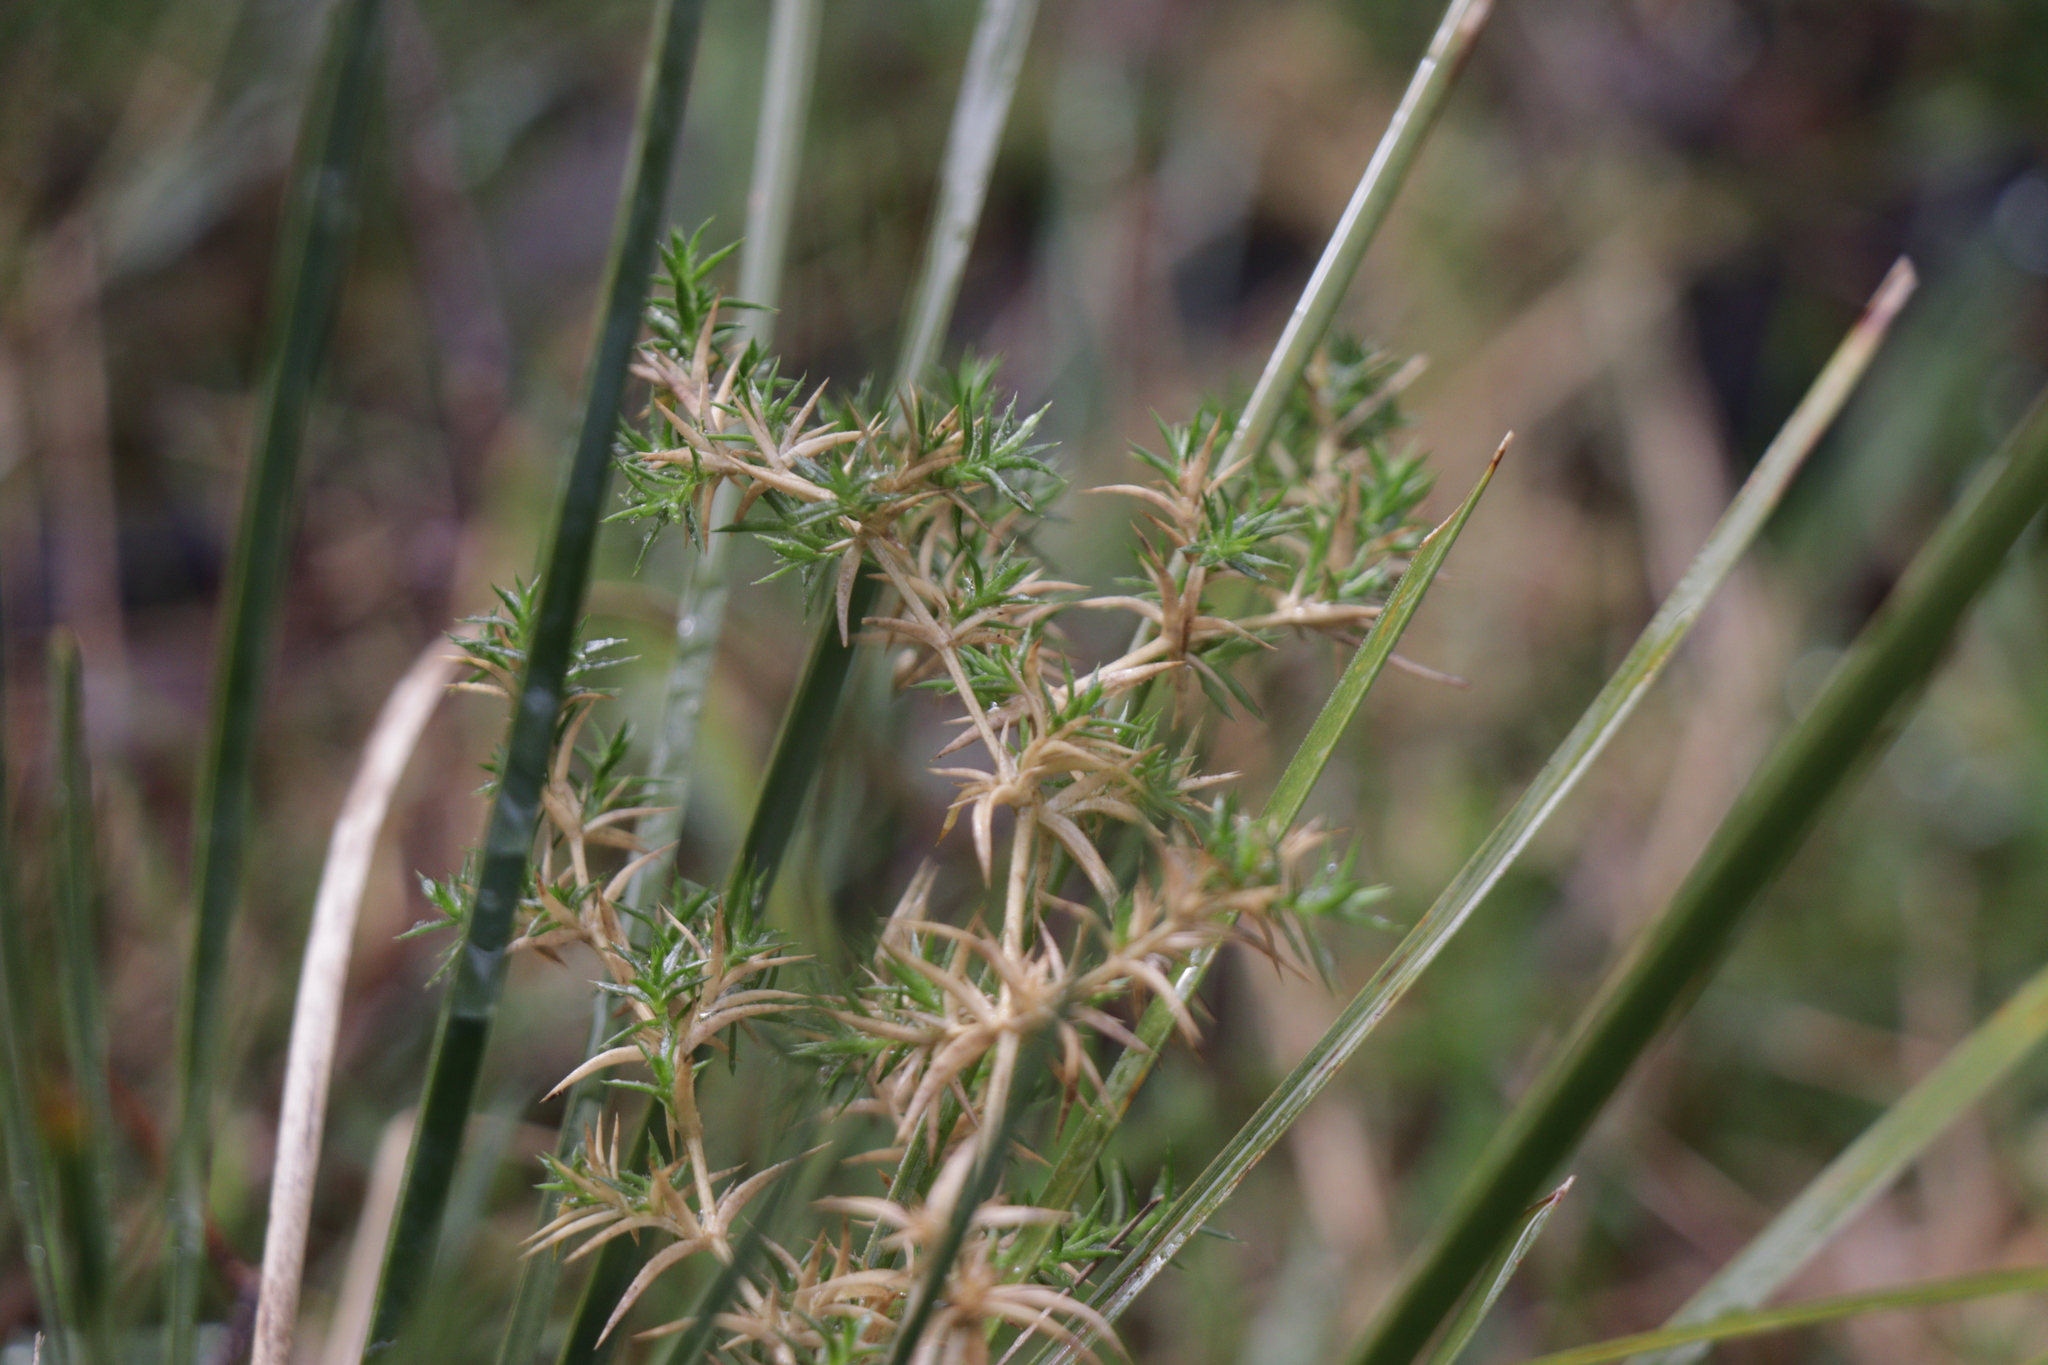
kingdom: Plantae
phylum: Tracheophyta
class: Magnoliopsida
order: Caryophyllales
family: Caryophyllaceae
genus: Stellaria
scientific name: Stellaria pungens
